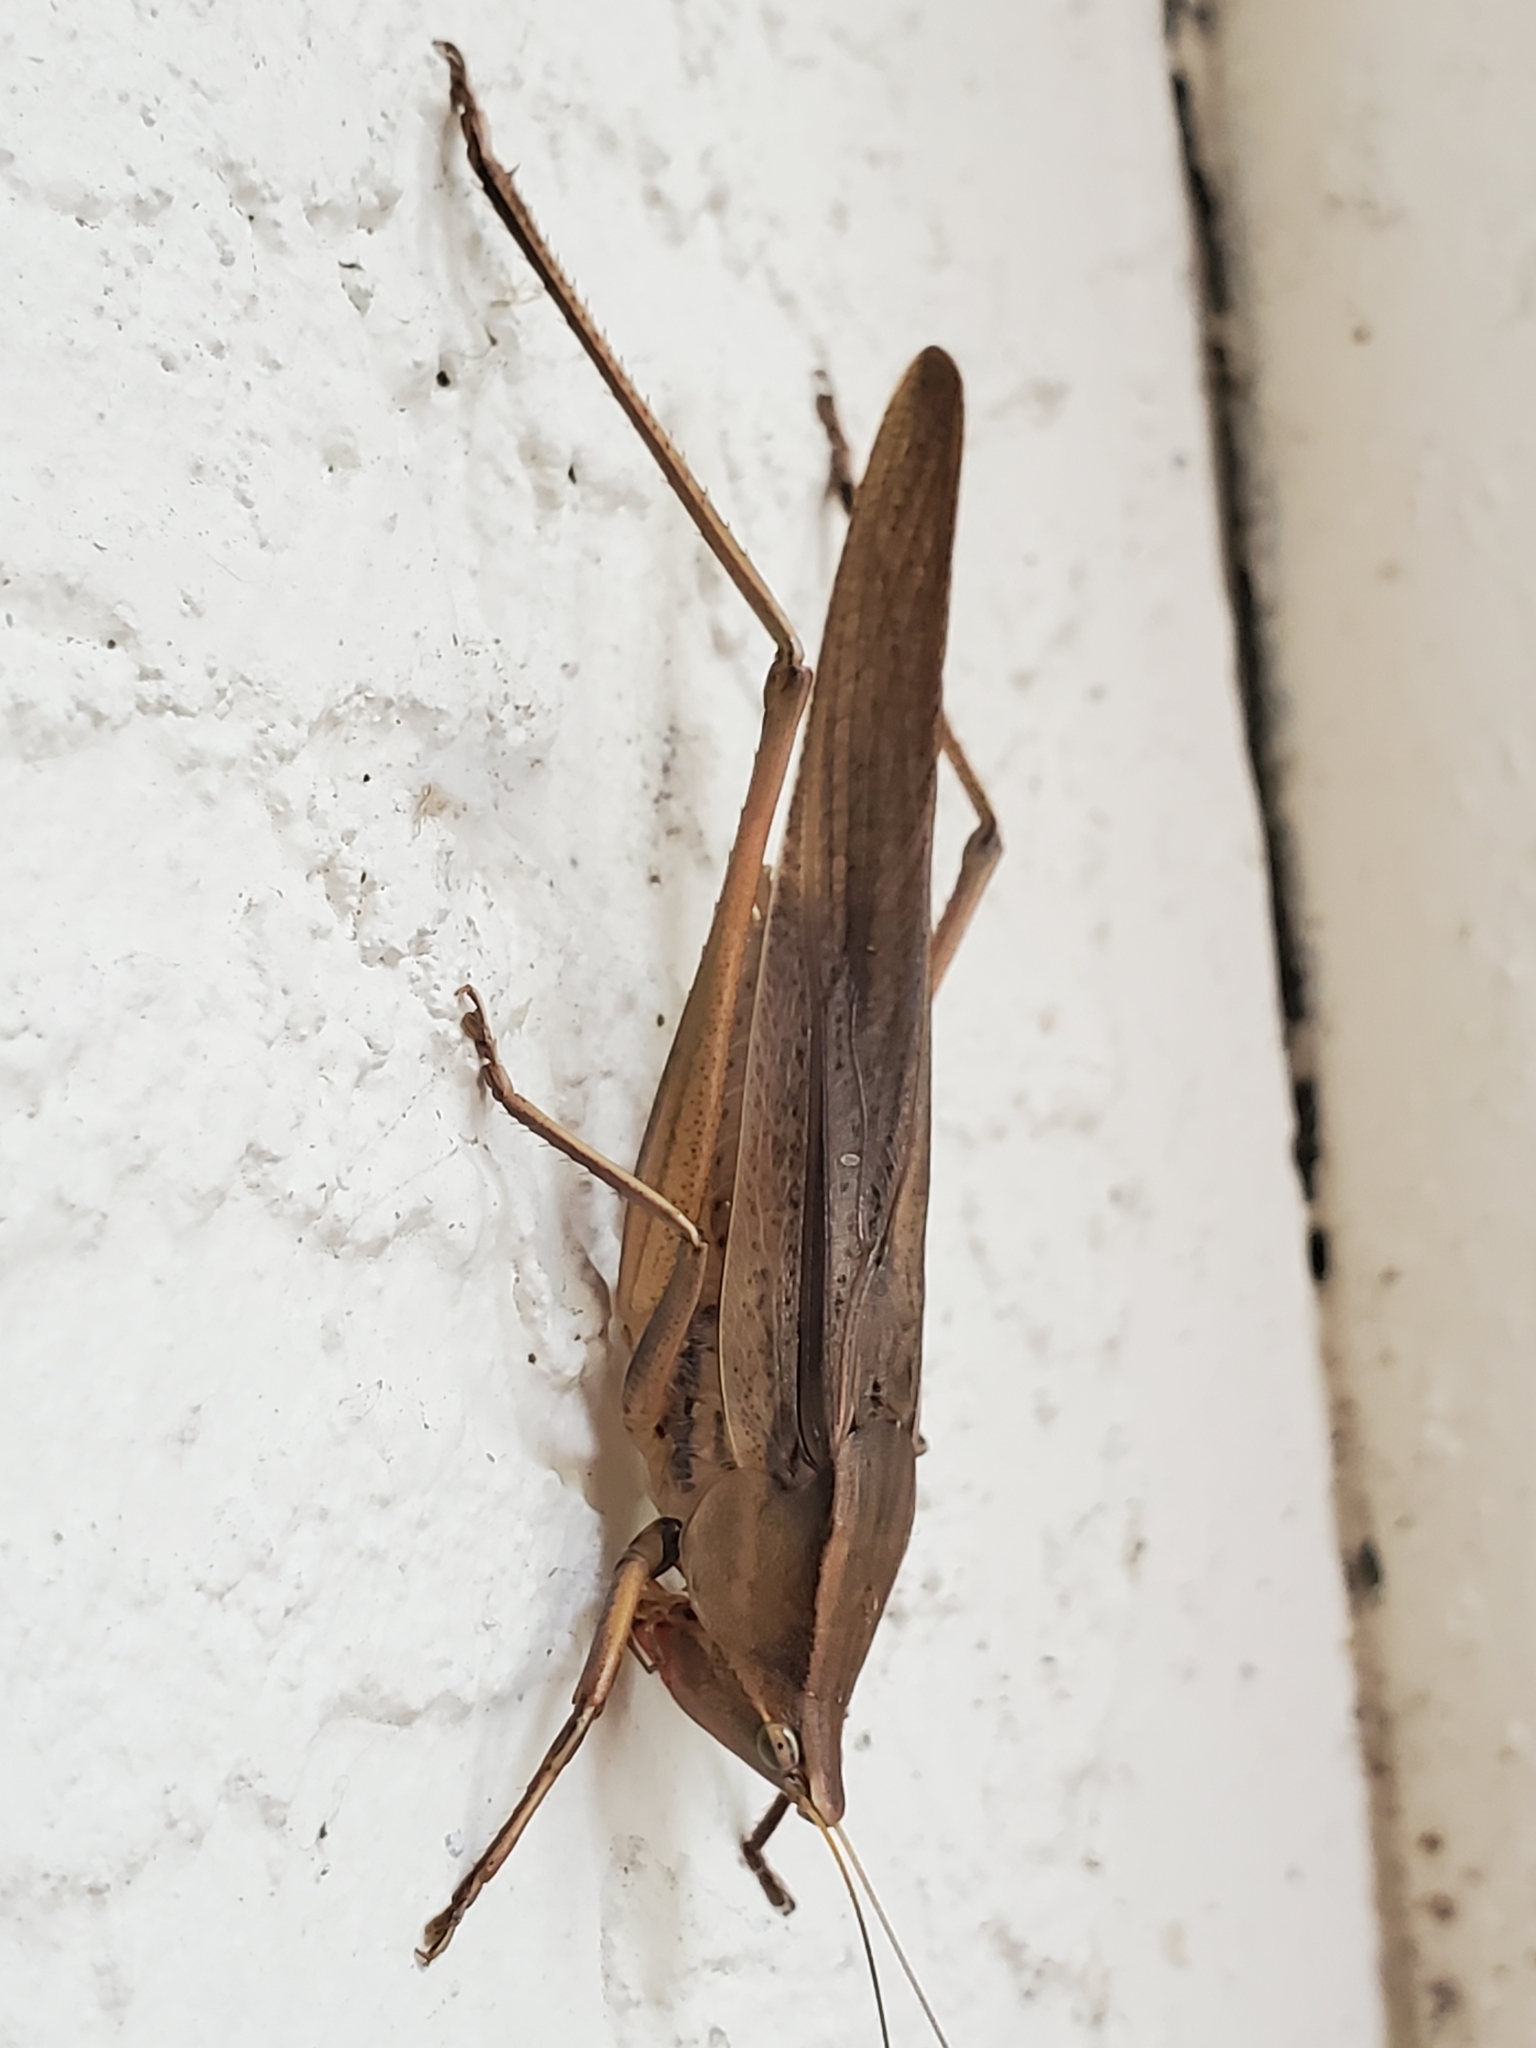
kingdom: Animalia
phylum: Arthropoda
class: Insecta
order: Orthoptera
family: Tettigoniidae
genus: Neoconocephalus
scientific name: Neoconocephalus triops
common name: Broad-tipped conehead
